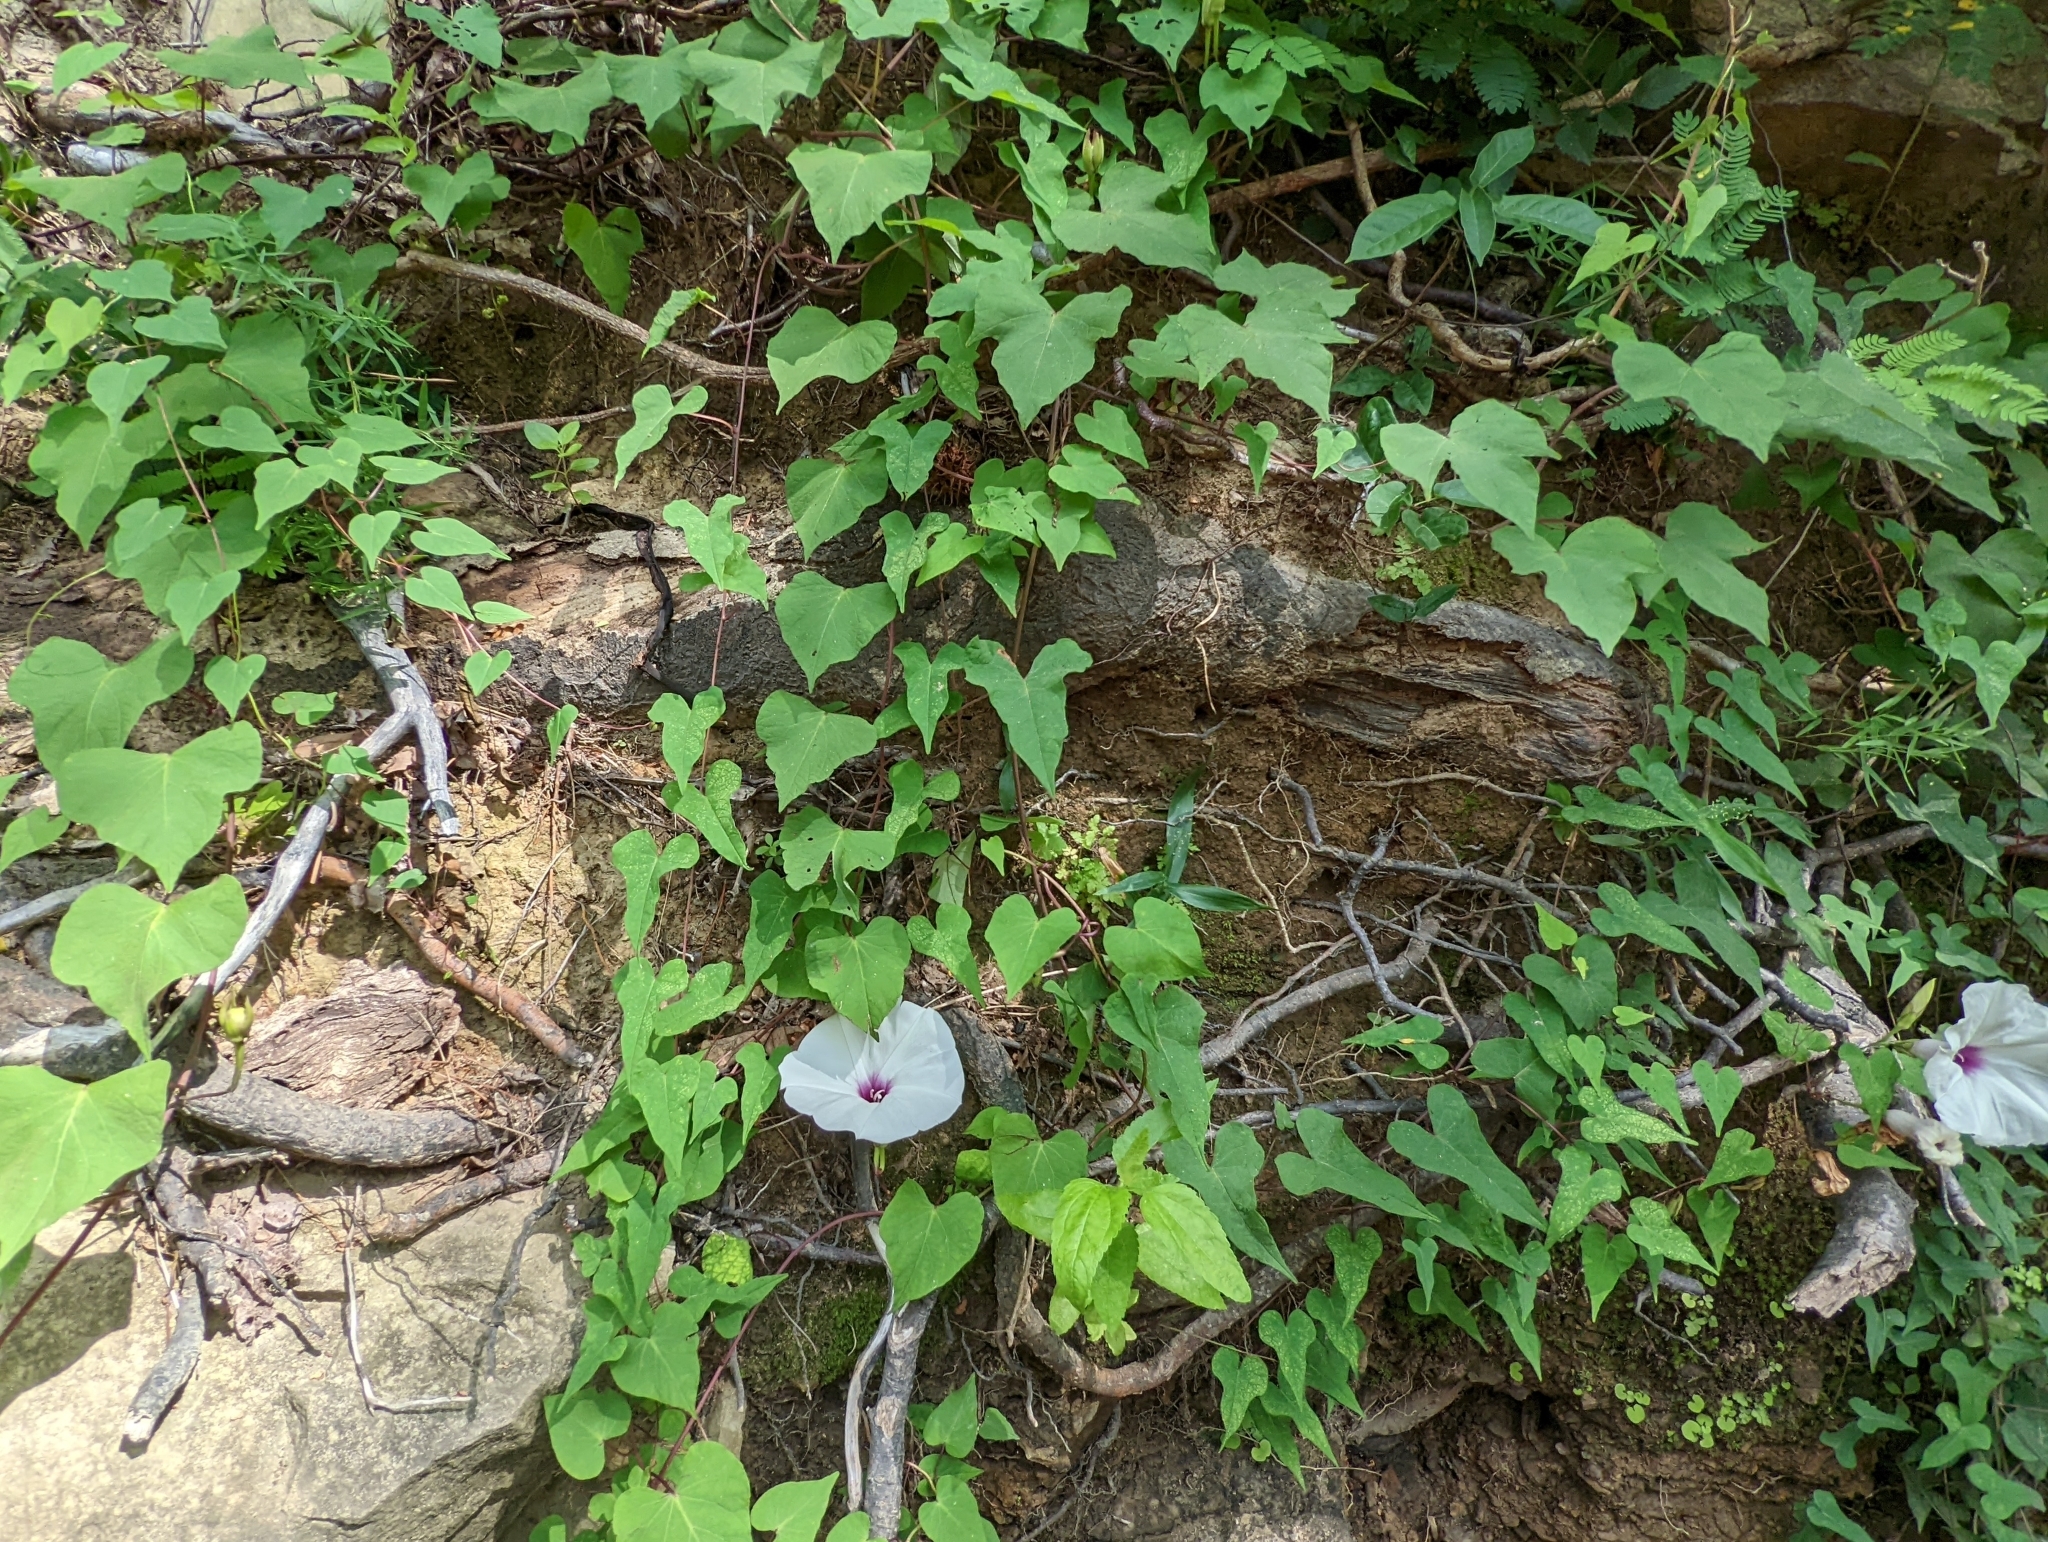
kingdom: Plantae
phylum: Tracheophyta
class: Magnoliopsida
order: Solanales
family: Convolvulaceae
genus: Ipomoea
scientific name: Ipomoea pandurata
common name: Man-of-the-earth
